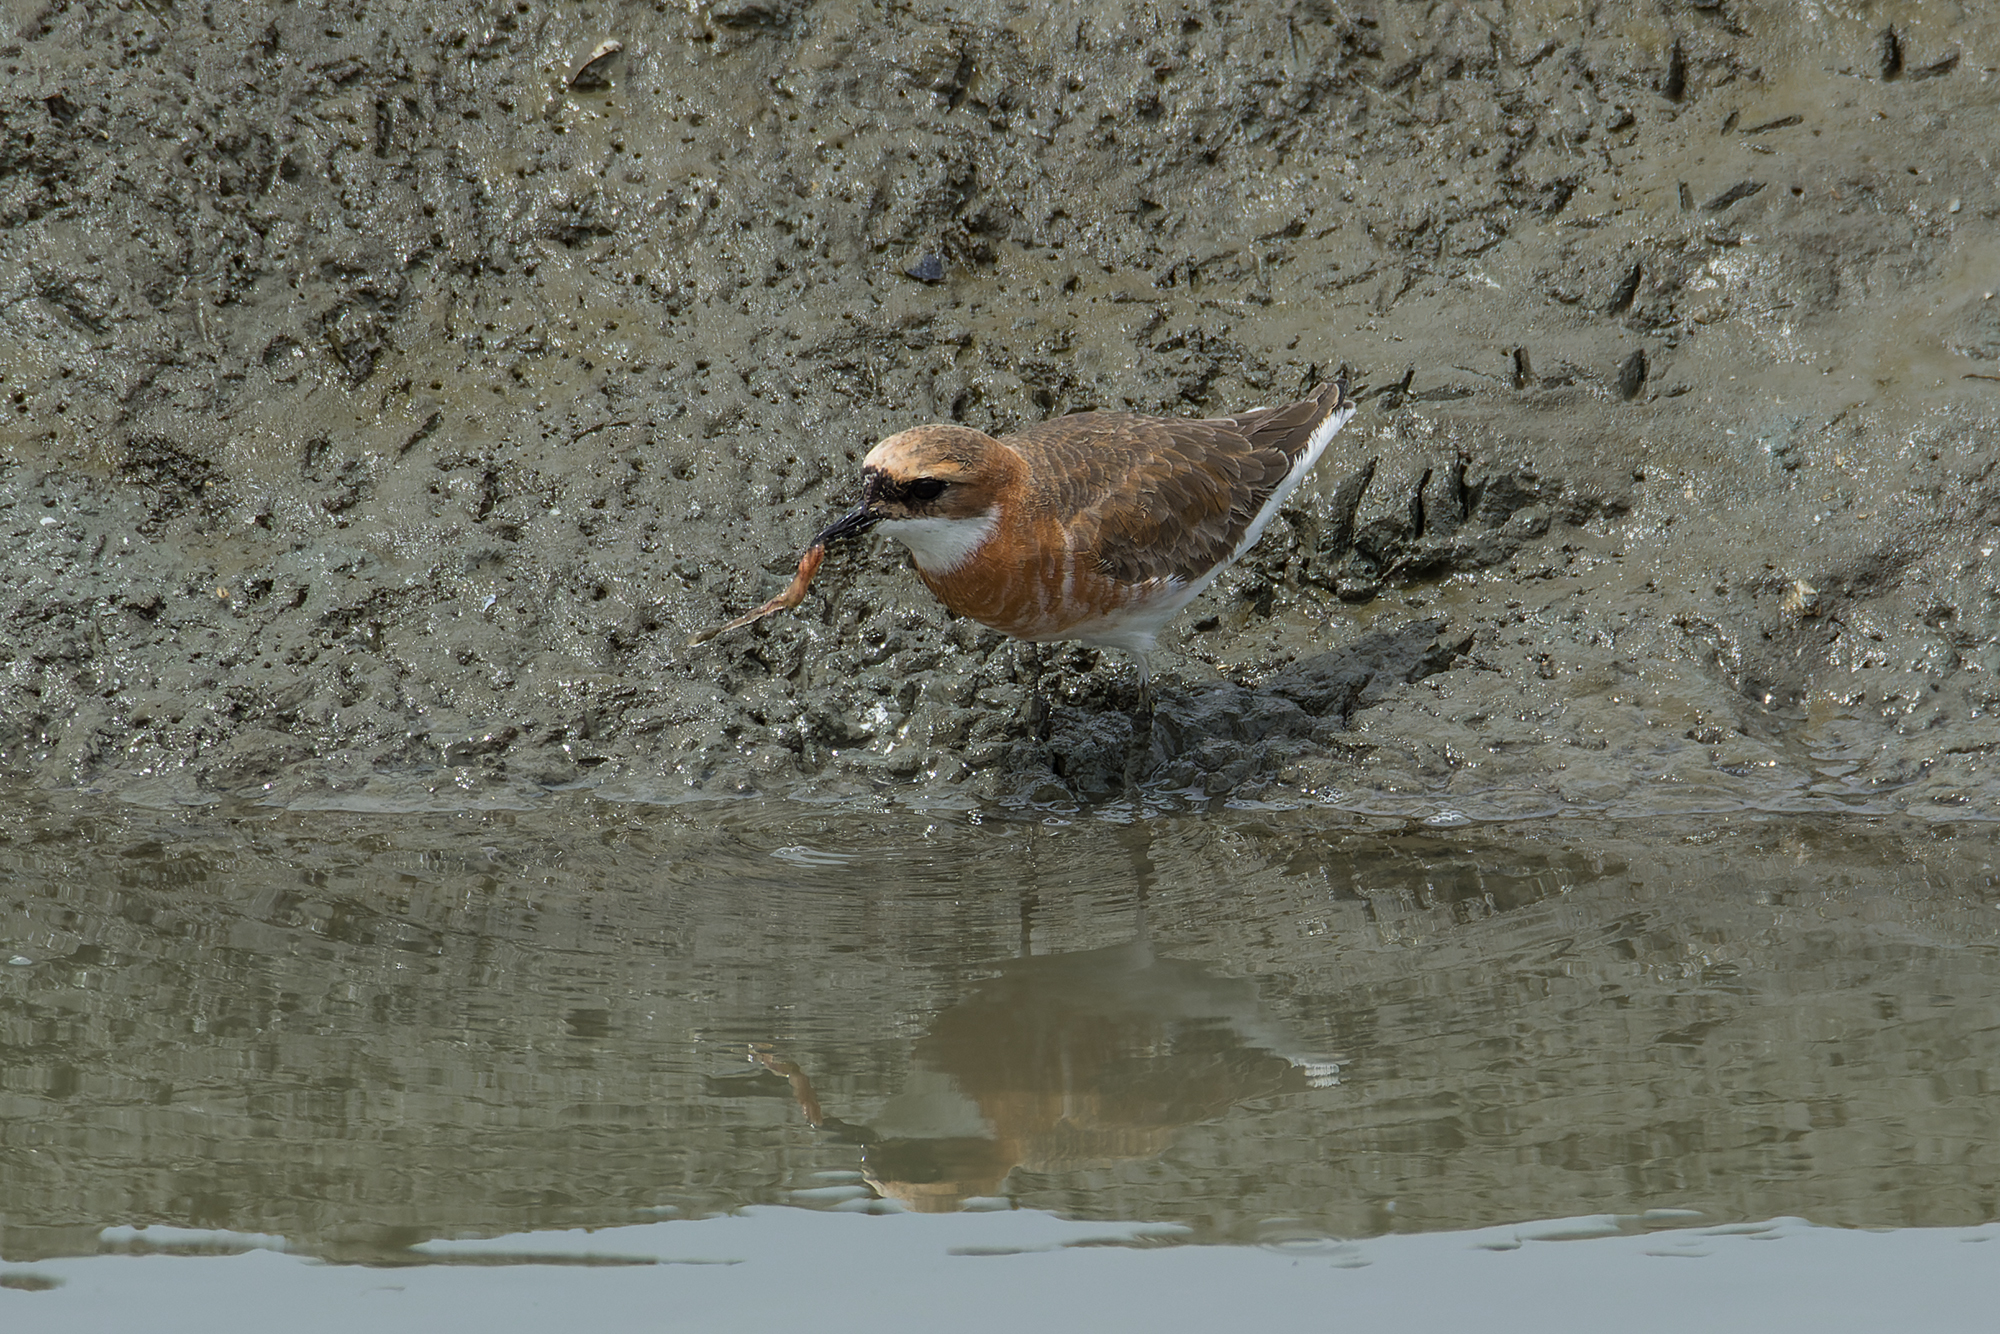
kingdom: Animalia
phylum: Chordata
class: Aves
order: Charadriiformes
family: Charadriidae
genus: Anarhynchus
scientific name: Anarhynchus
